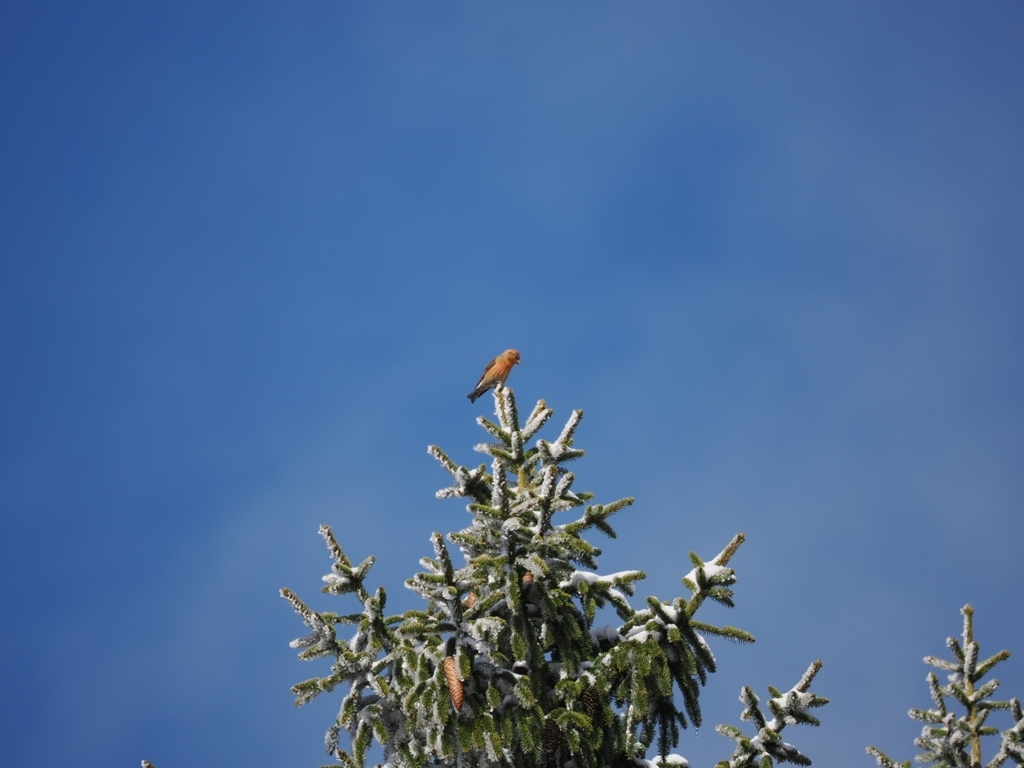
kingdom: Animalia
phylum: Chordata
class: Aves
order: Passeriformes
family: Fringillidae
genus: Loxia
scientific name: Loxia curvirostra
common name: Red crossbill
